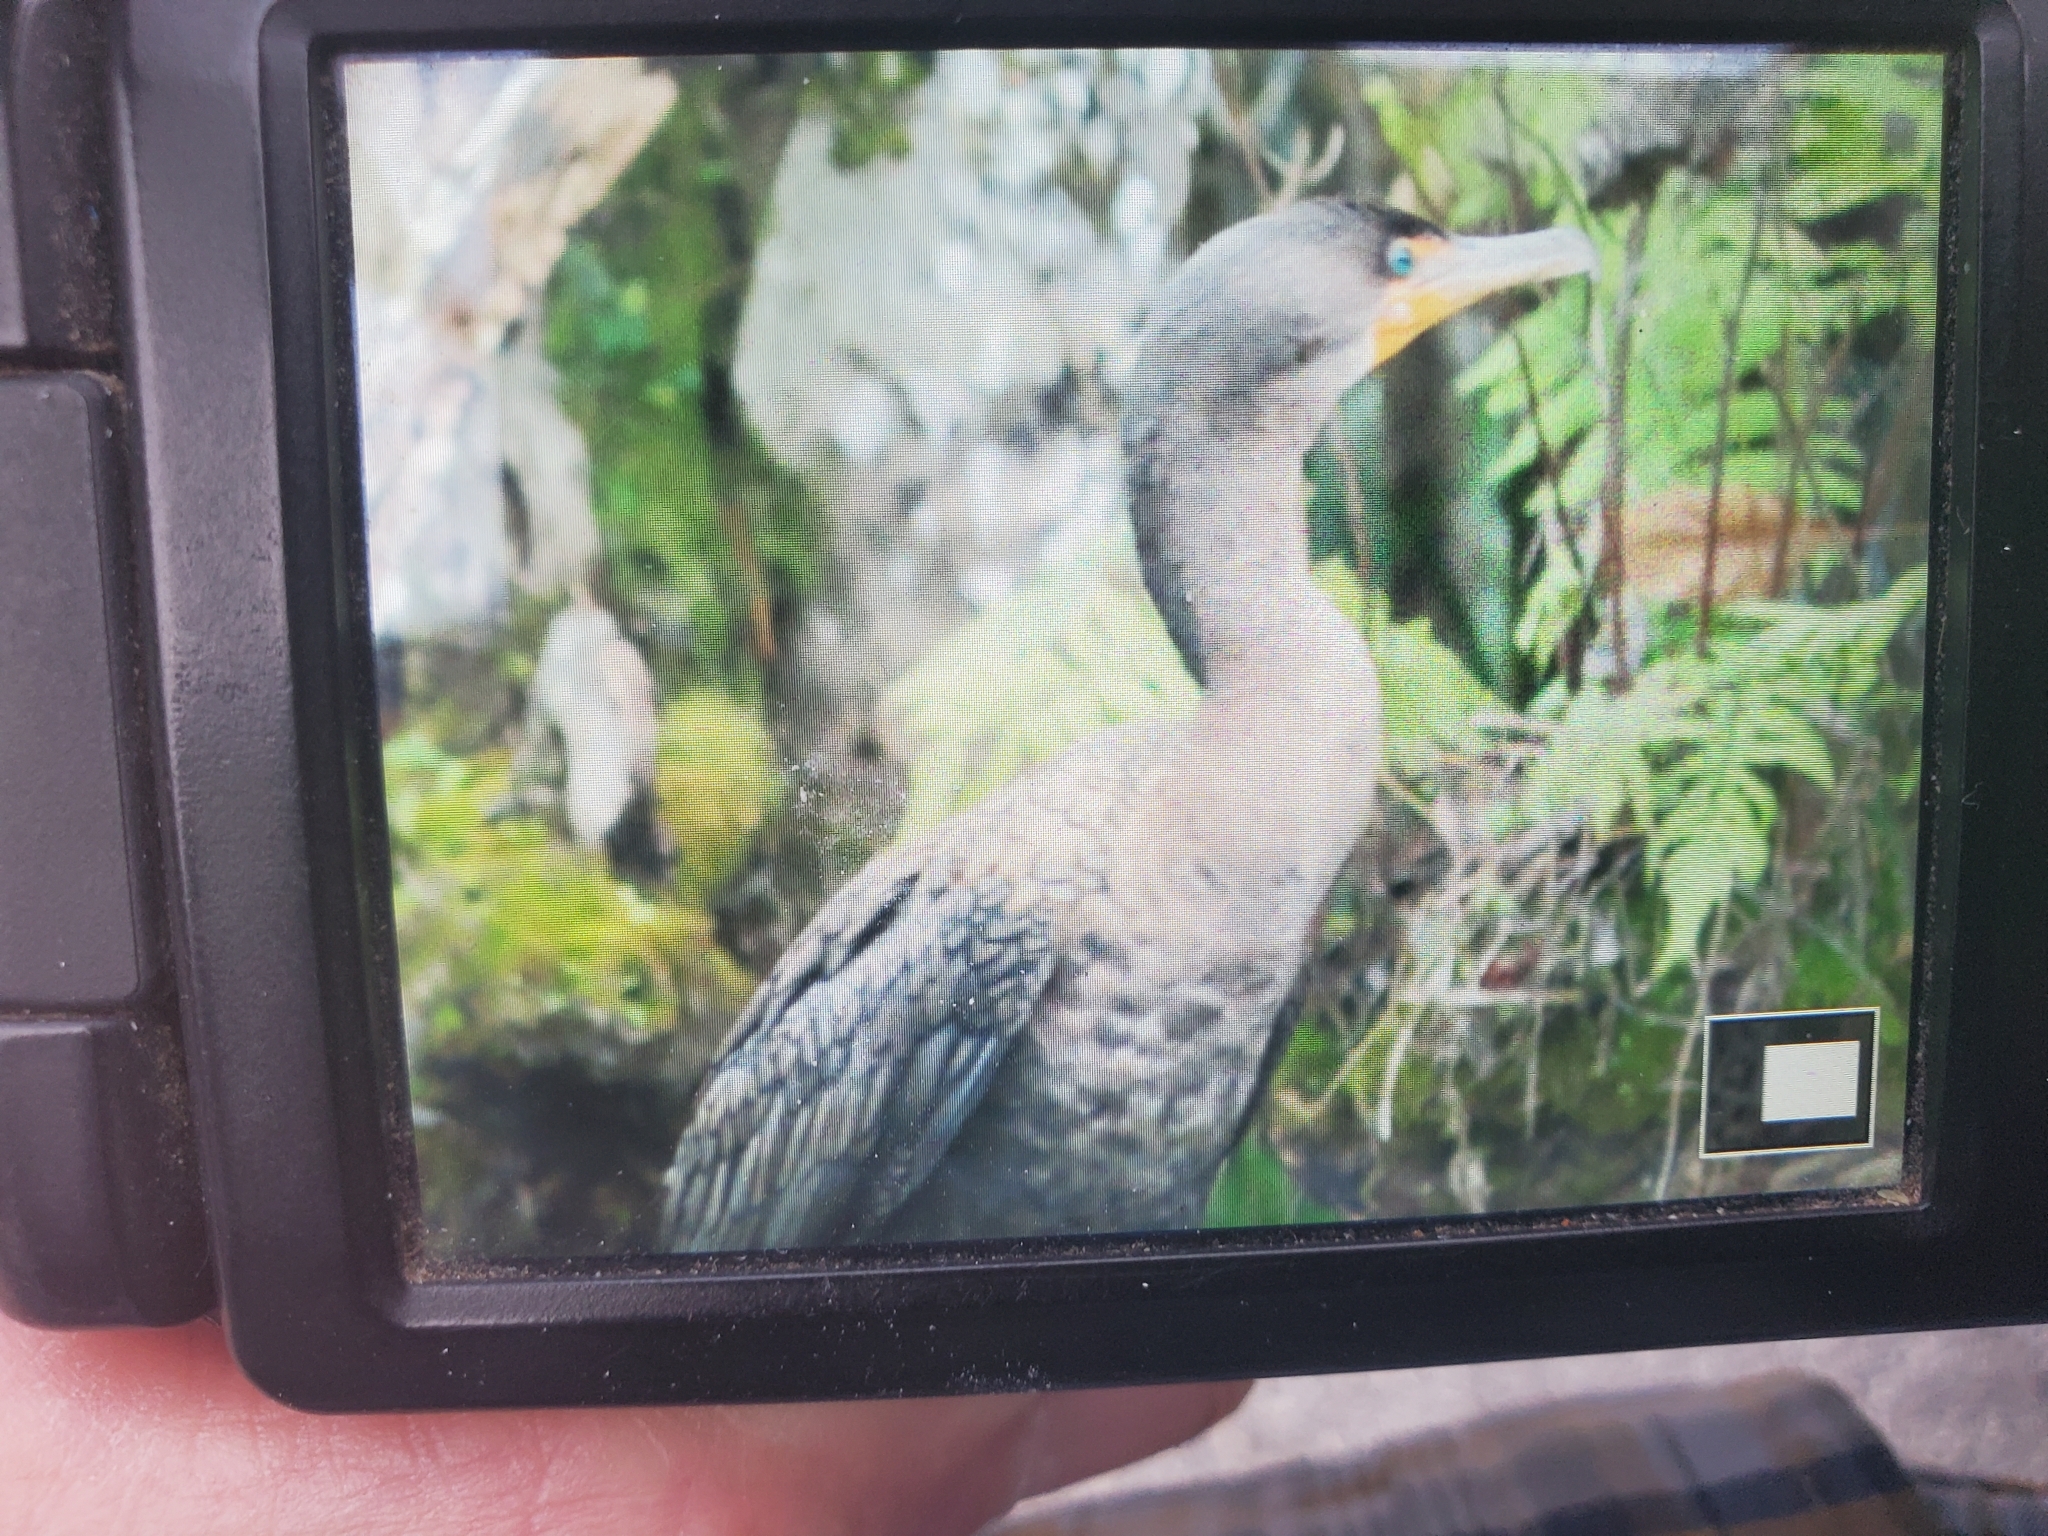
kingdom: Animalia
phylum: Chordata
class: Aves
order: Suliformes
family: Phalacrocoracidae
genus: Phalacrocorax
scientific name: Phalacrocorax auritus
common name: Double-crested cormorant
